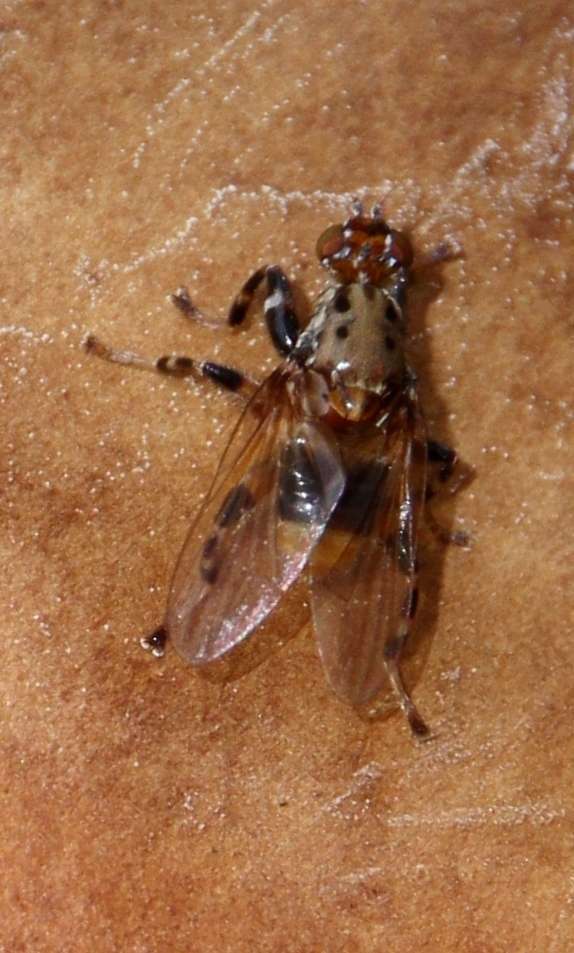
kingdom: Animalia
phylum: Arthropoda
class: Insecta
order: Diptera
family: Heleomyzidae
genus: Tapeigaster
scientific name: Tapeigaster cinctipes
